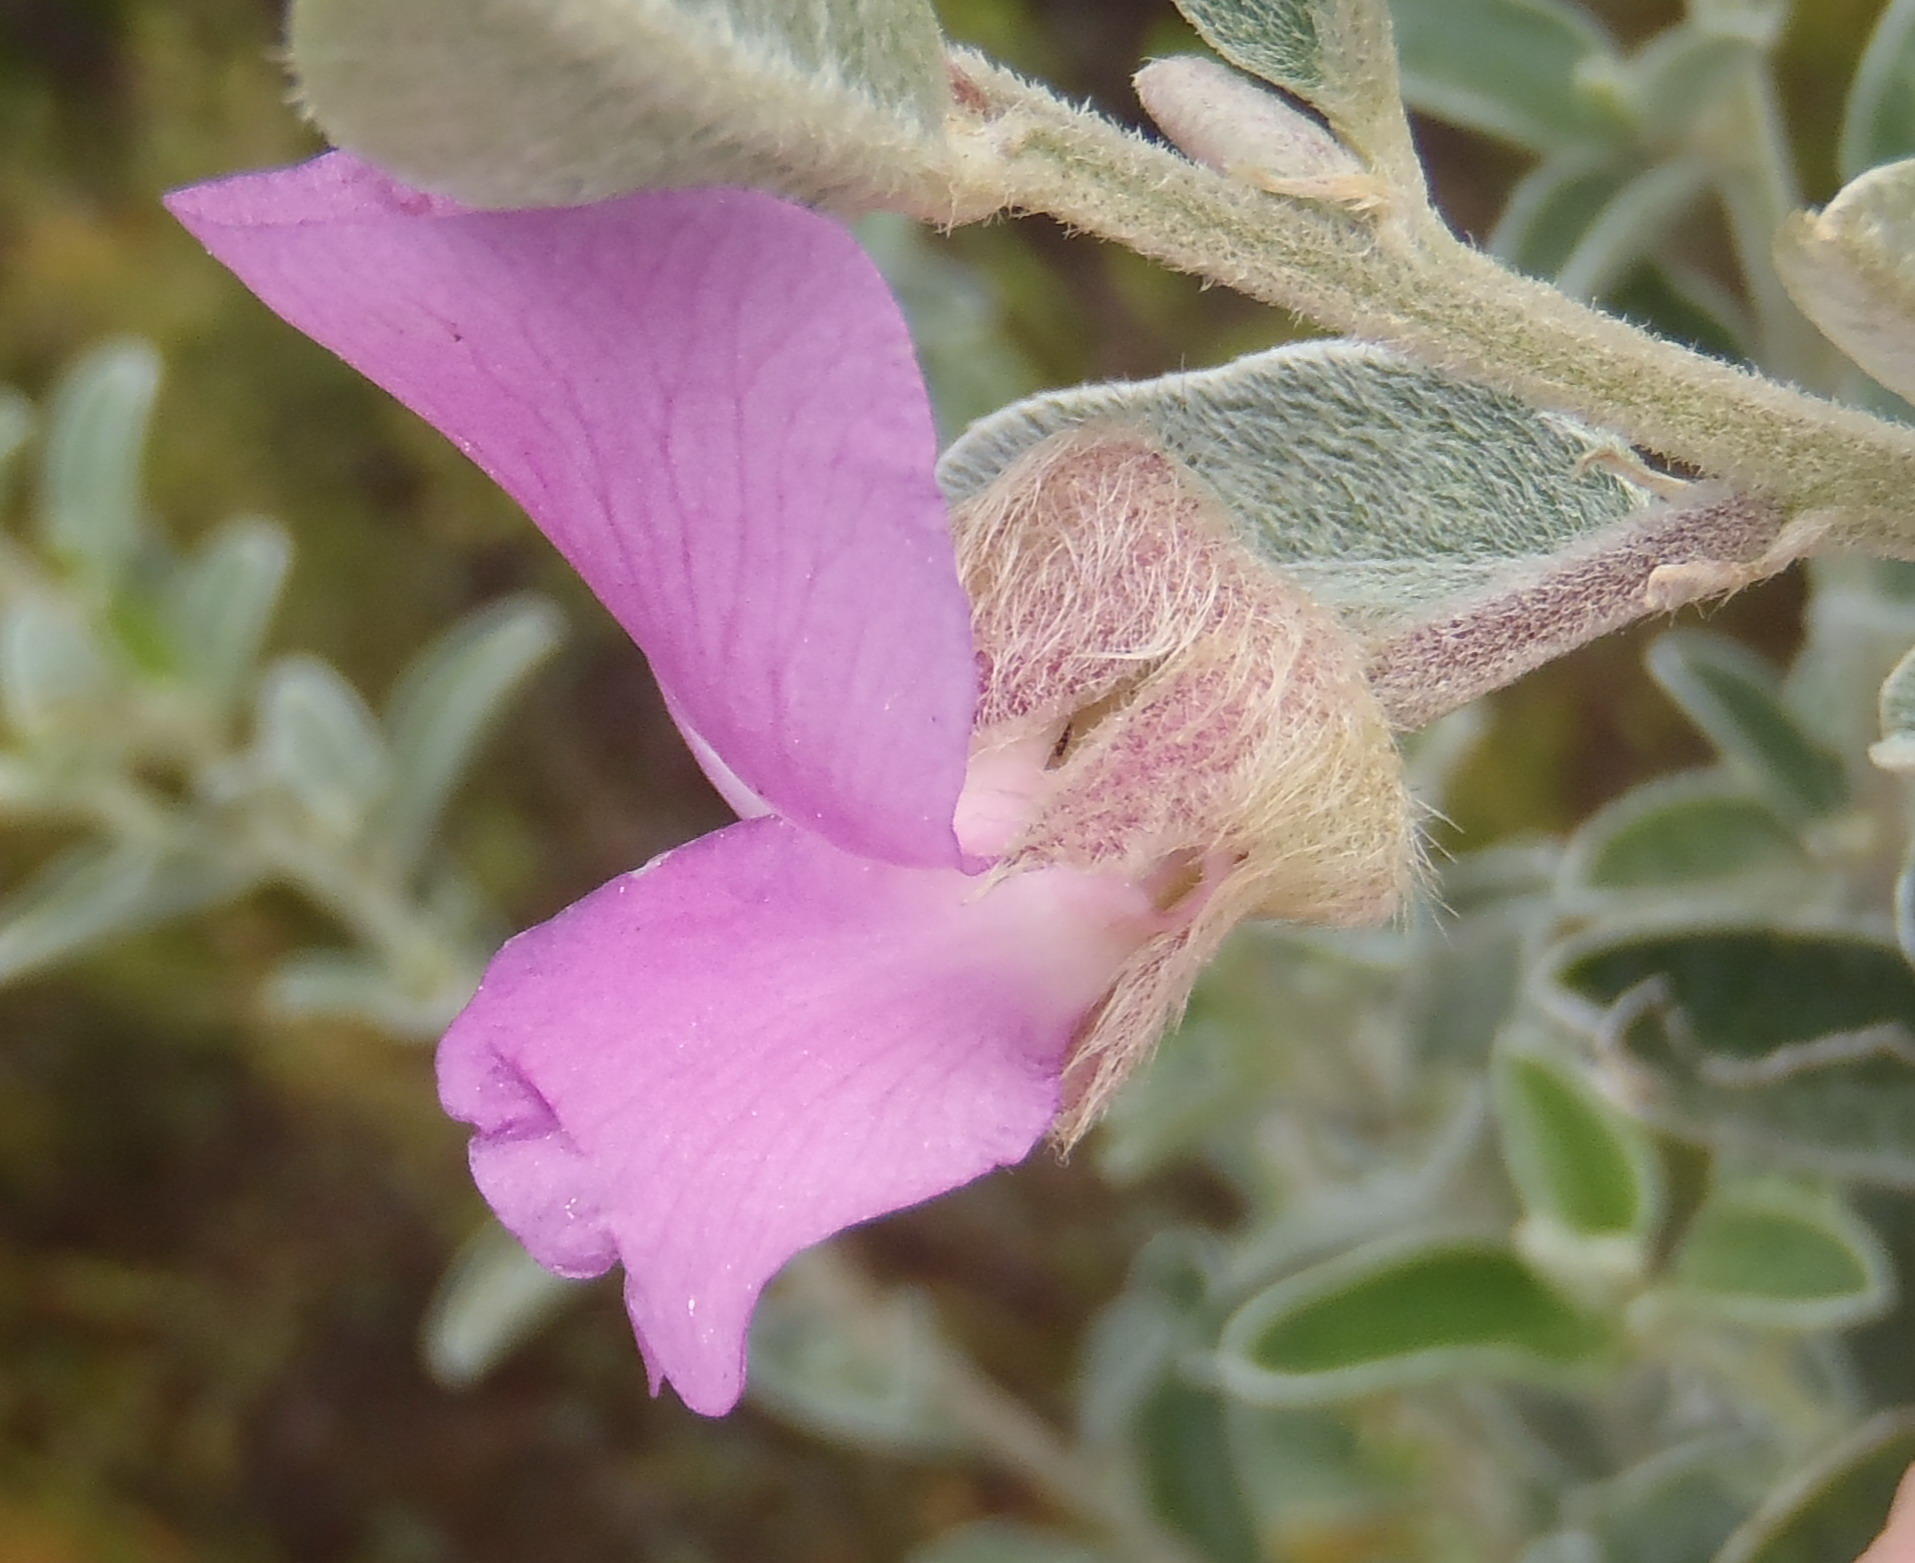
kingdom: Plantae
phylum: Tracheophyta
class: Magnoliopsida
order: Fabales
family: Fabaceae
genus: Podalyria
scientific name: Podalyria burchellii
